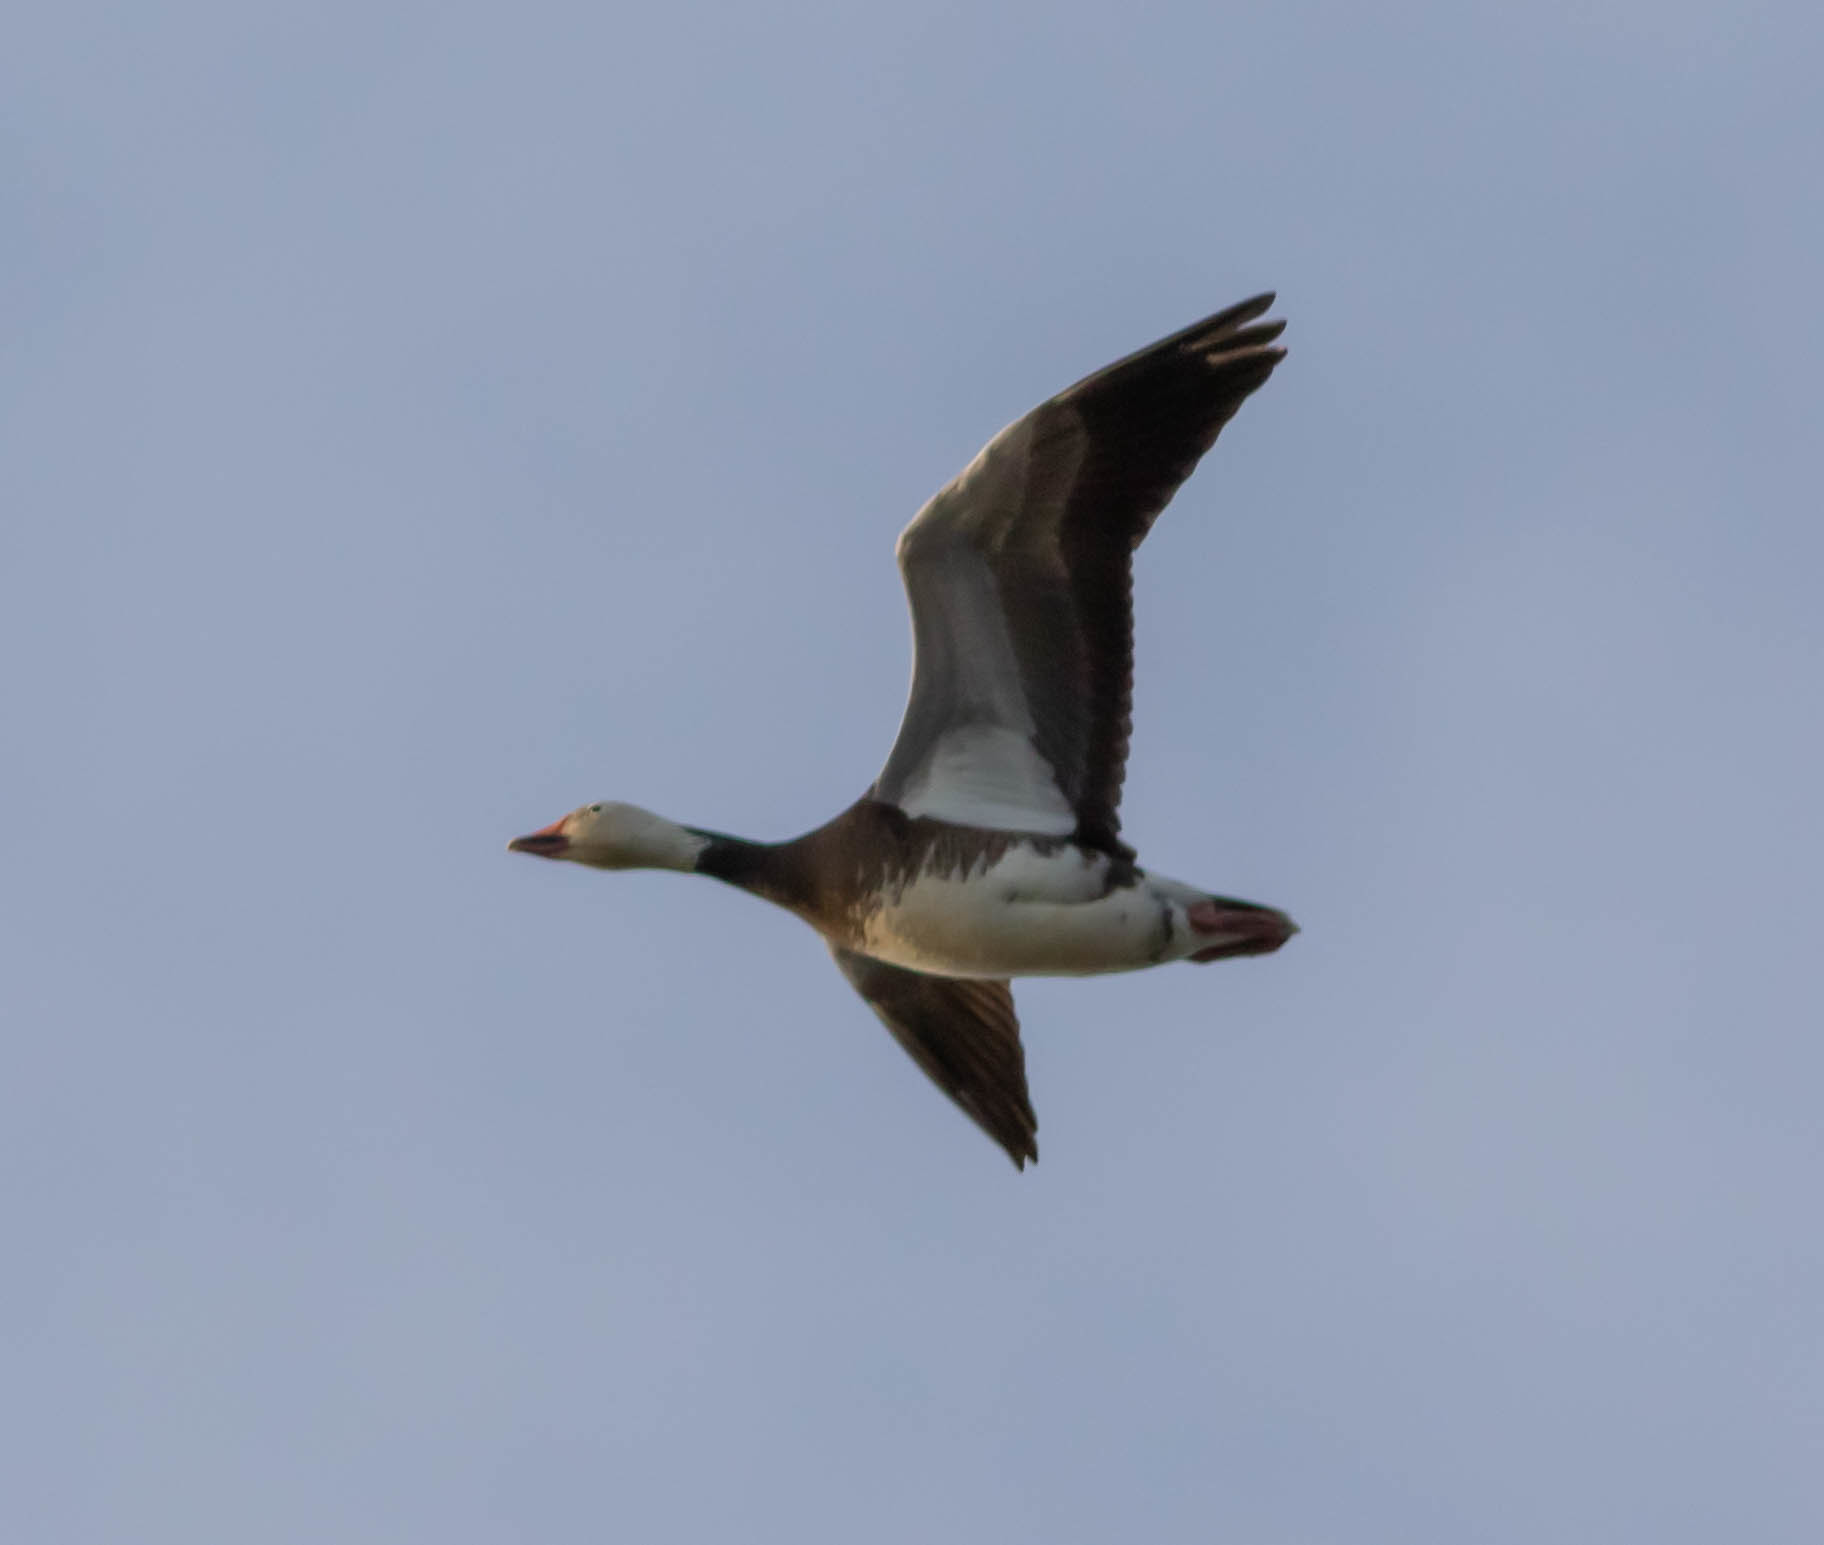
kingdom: Animalia
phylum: Chordata
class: Aves
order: Anseriformes
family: Anatidae
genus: Anser
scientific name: Anser caerulescens
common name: Snow goose
